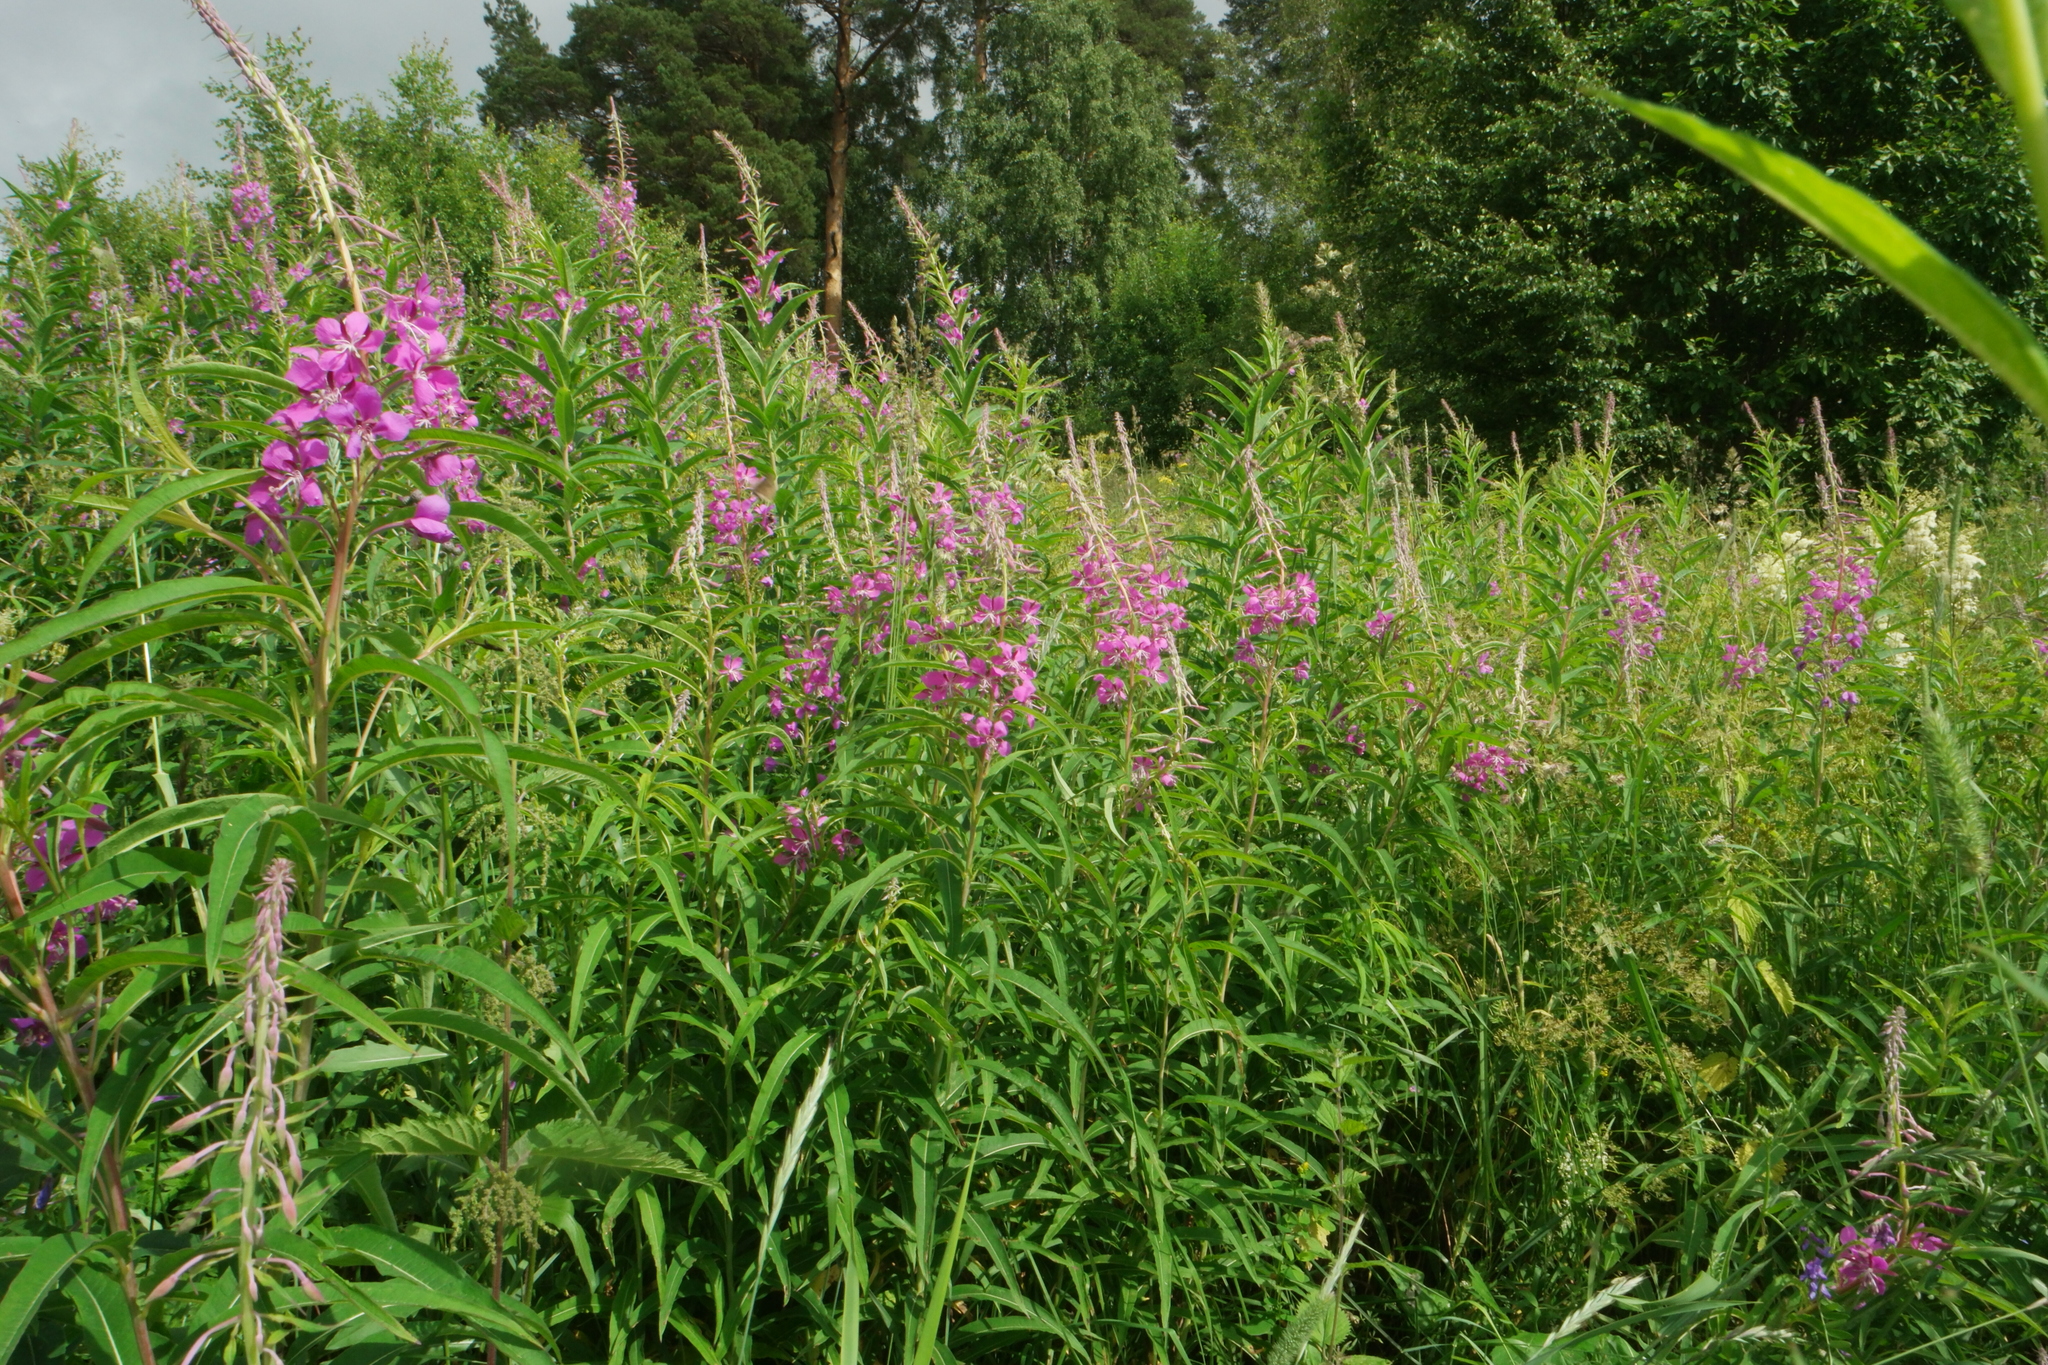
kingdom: Plantae
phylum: Tracheophyta
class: Magnoliopsida
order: Myrtales
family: Onagraceae
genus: Chamaenerion
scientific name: Chamaenerion angustifolium
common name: Fireweed
